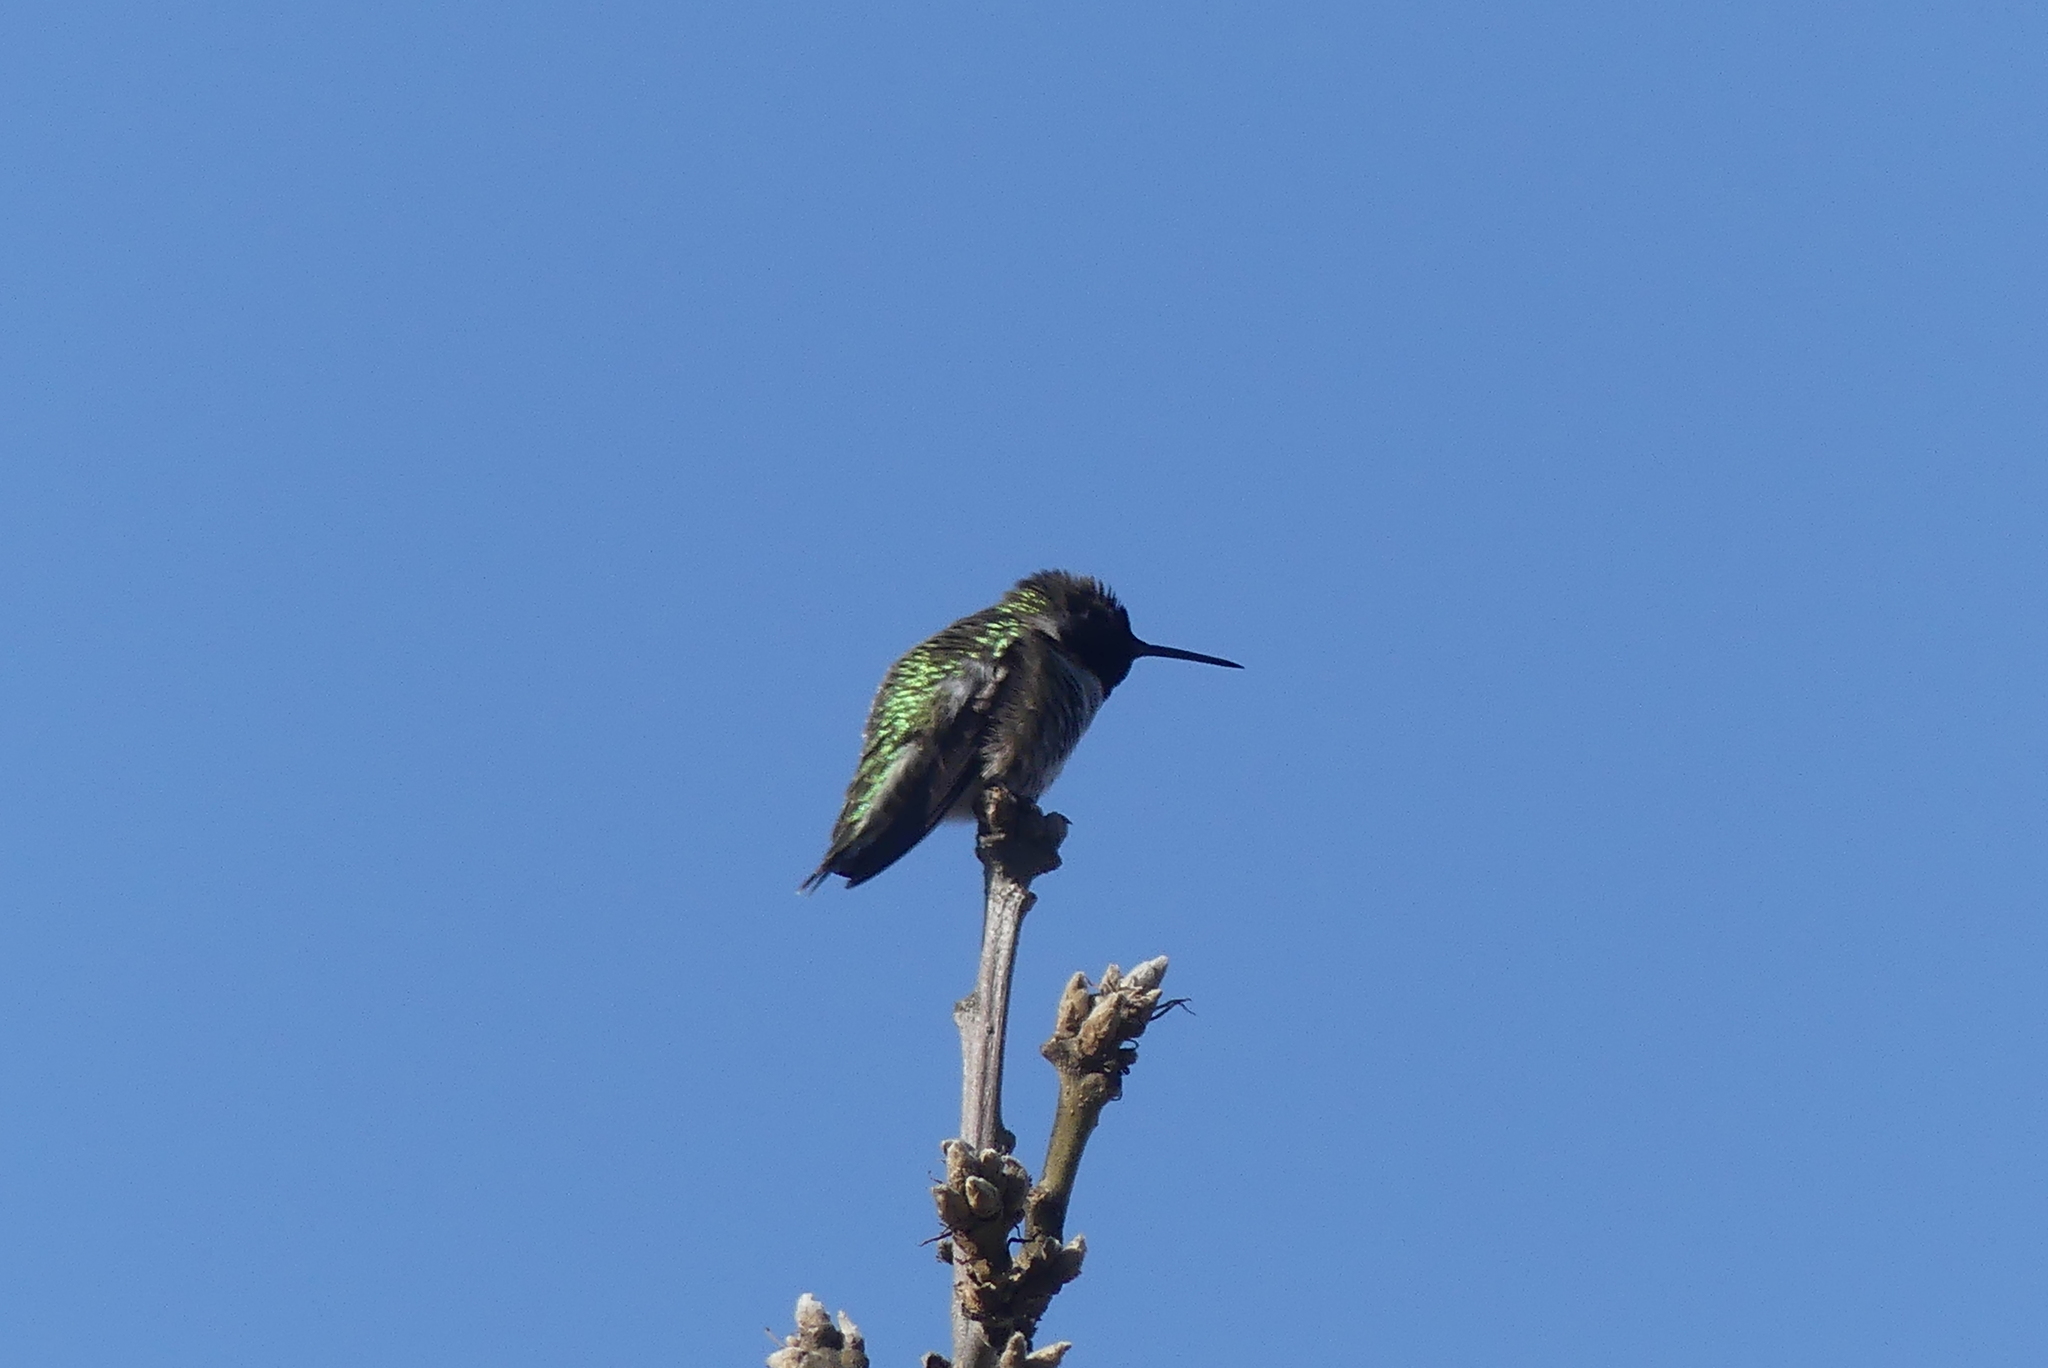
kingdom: Animalia
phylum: Chordata
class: Aves
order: Apodiformes
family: Trochilidae
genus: Calypte
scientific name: Calypte anna
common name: Anna's hummingbird
